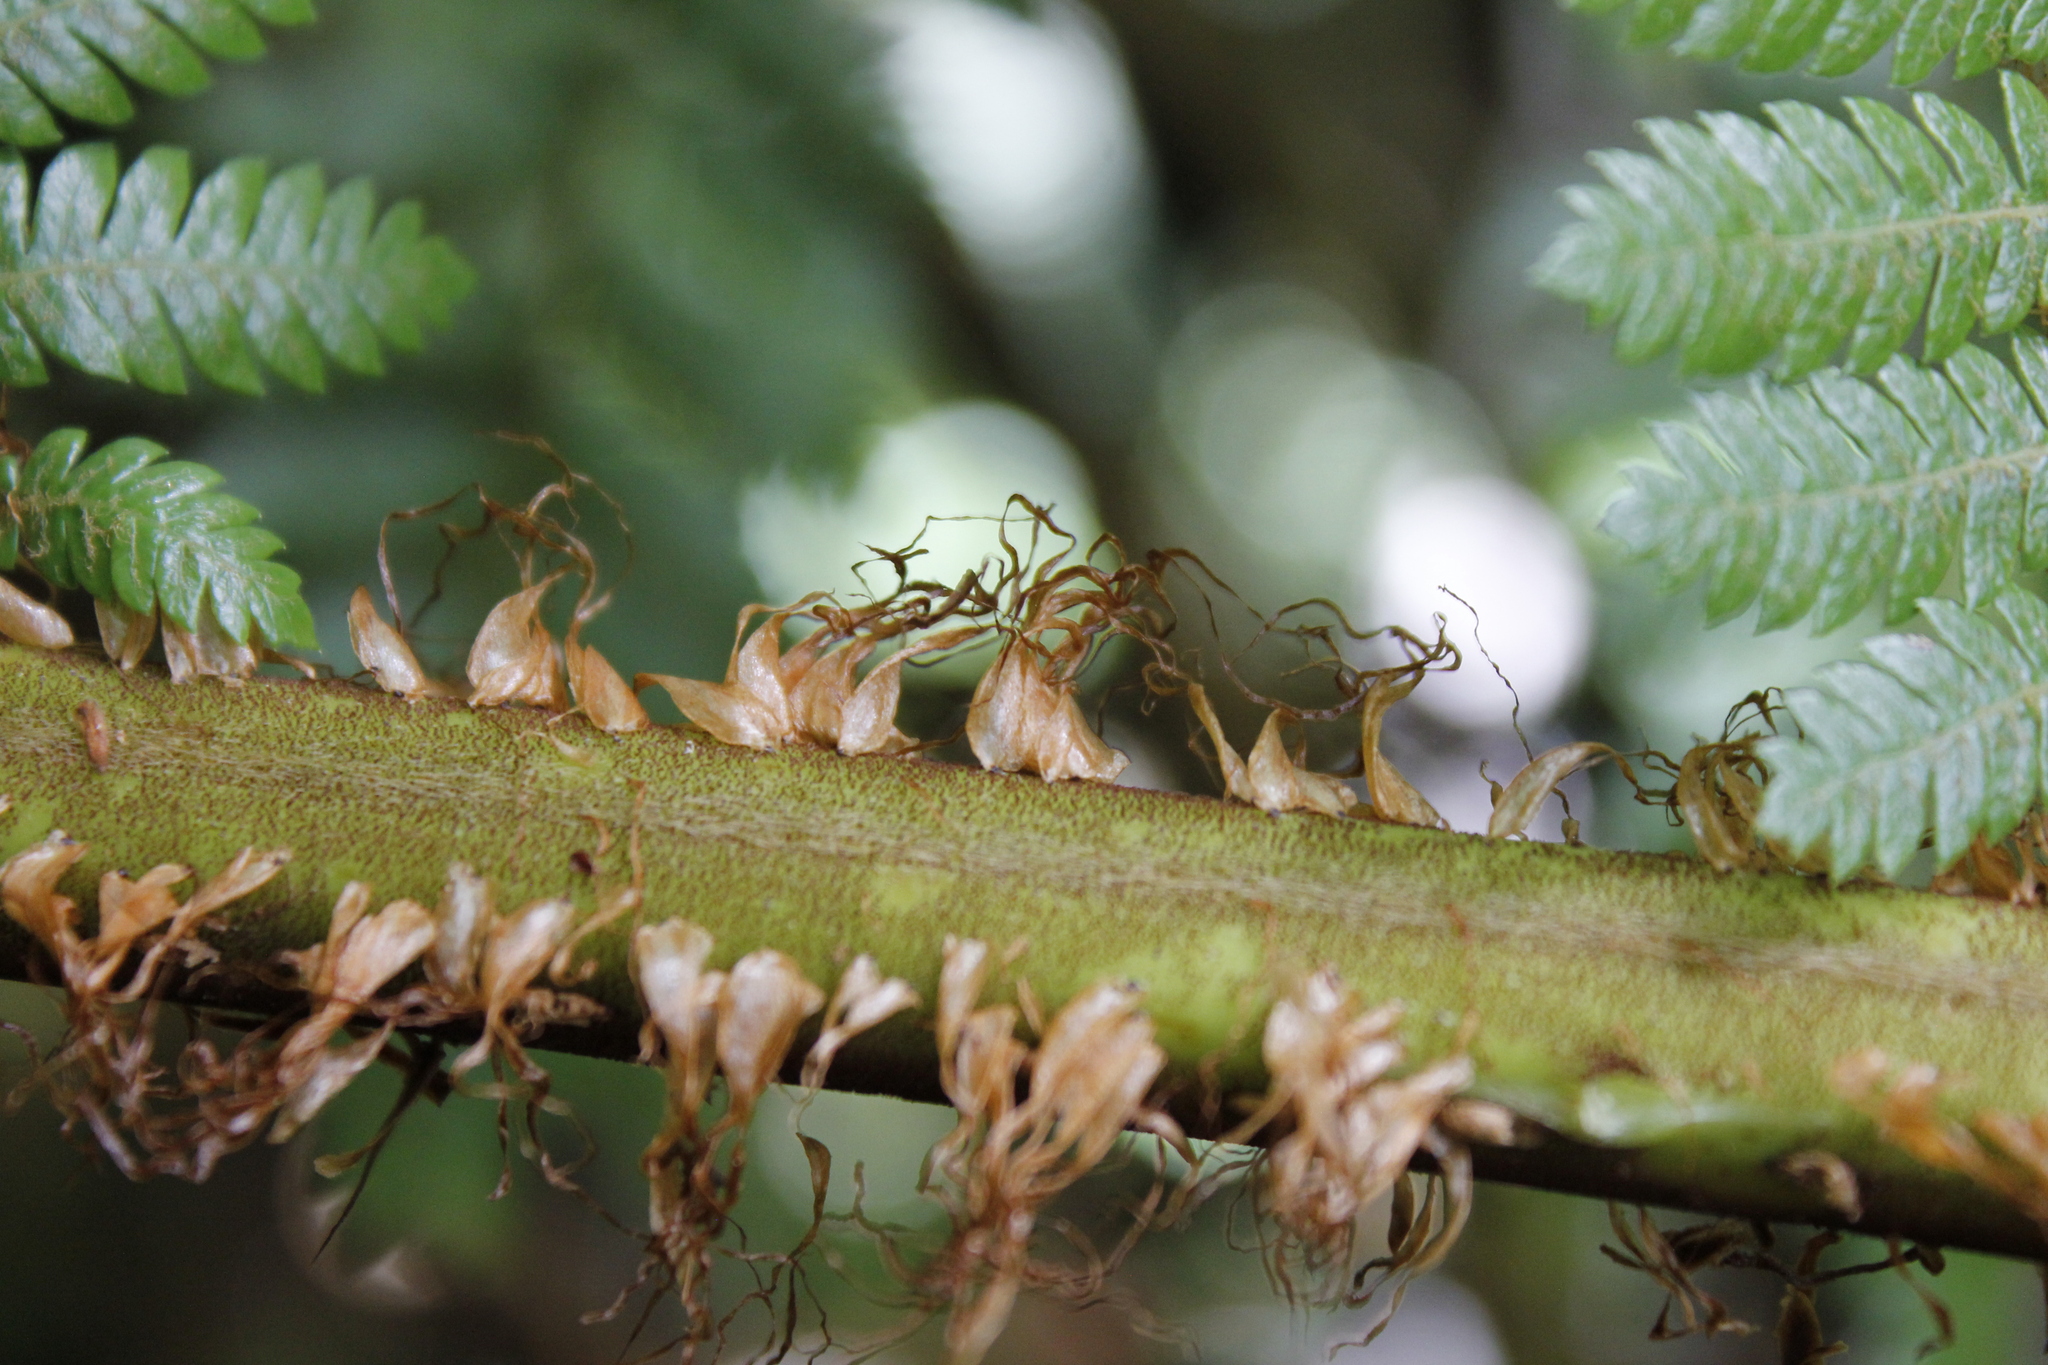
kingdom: Plantae
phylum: Tracheophyta
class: Polypodiopsida
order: Cyatheales
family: Cyatheaceae
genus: Alsophila
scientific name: Alsophila smithii
